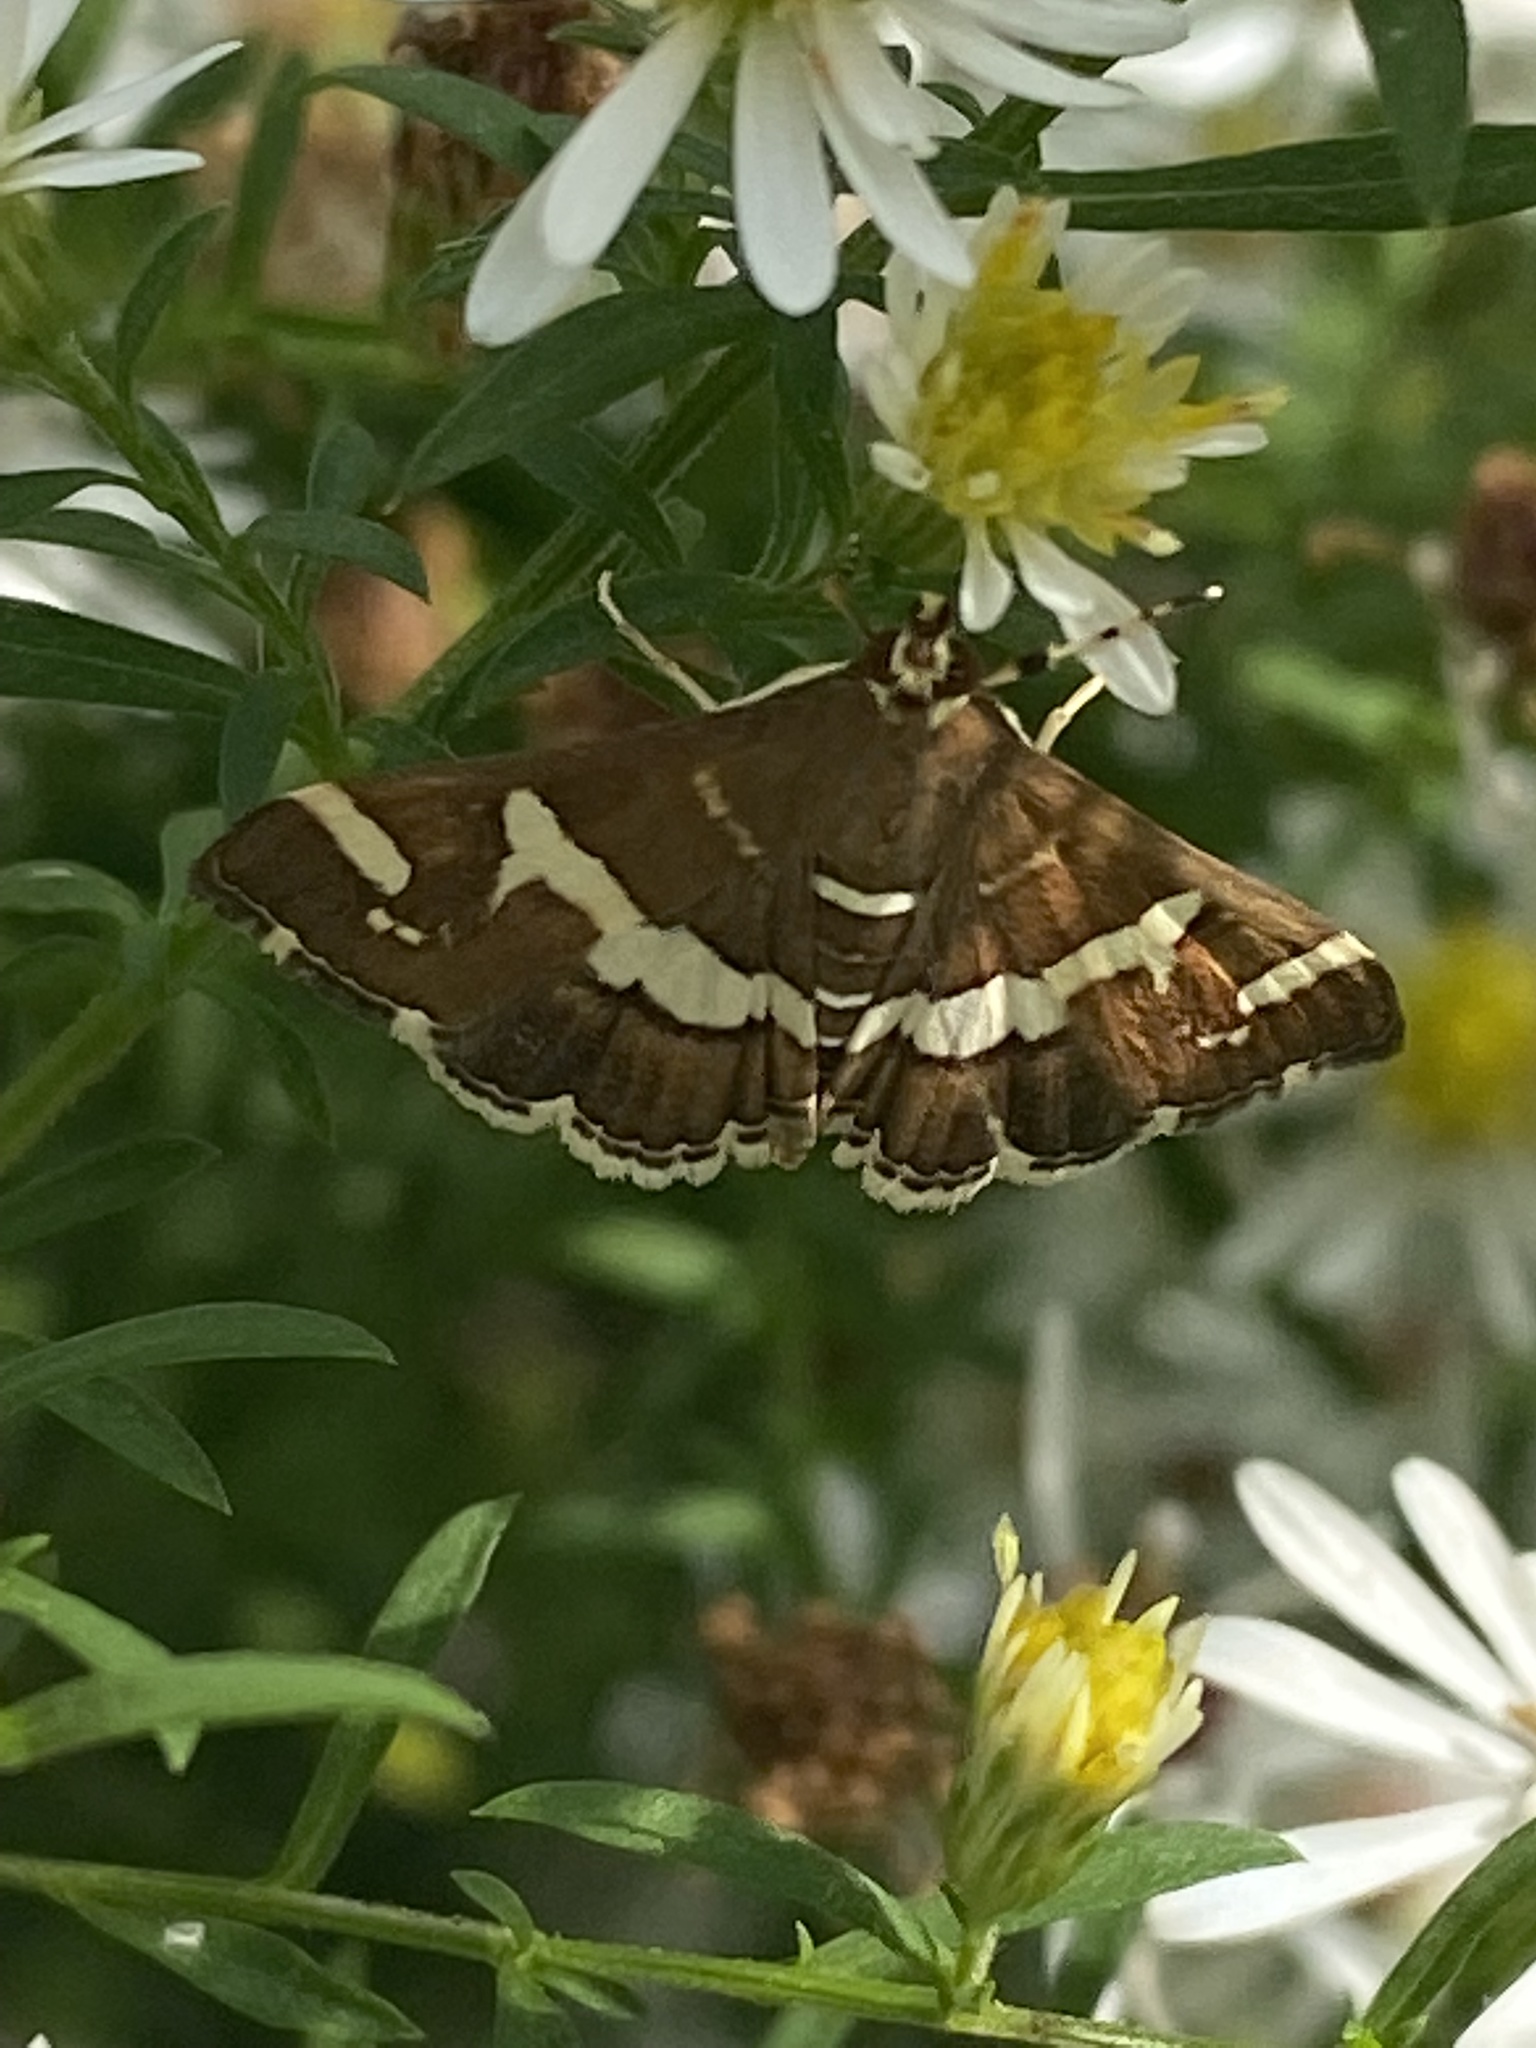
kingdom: Animalia
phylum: Arthropoda
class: Insecta
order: Lepidoptera
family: Crambidae
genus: Spoladea
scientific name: Spoladea recurvalis
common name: Beet webworm moth
